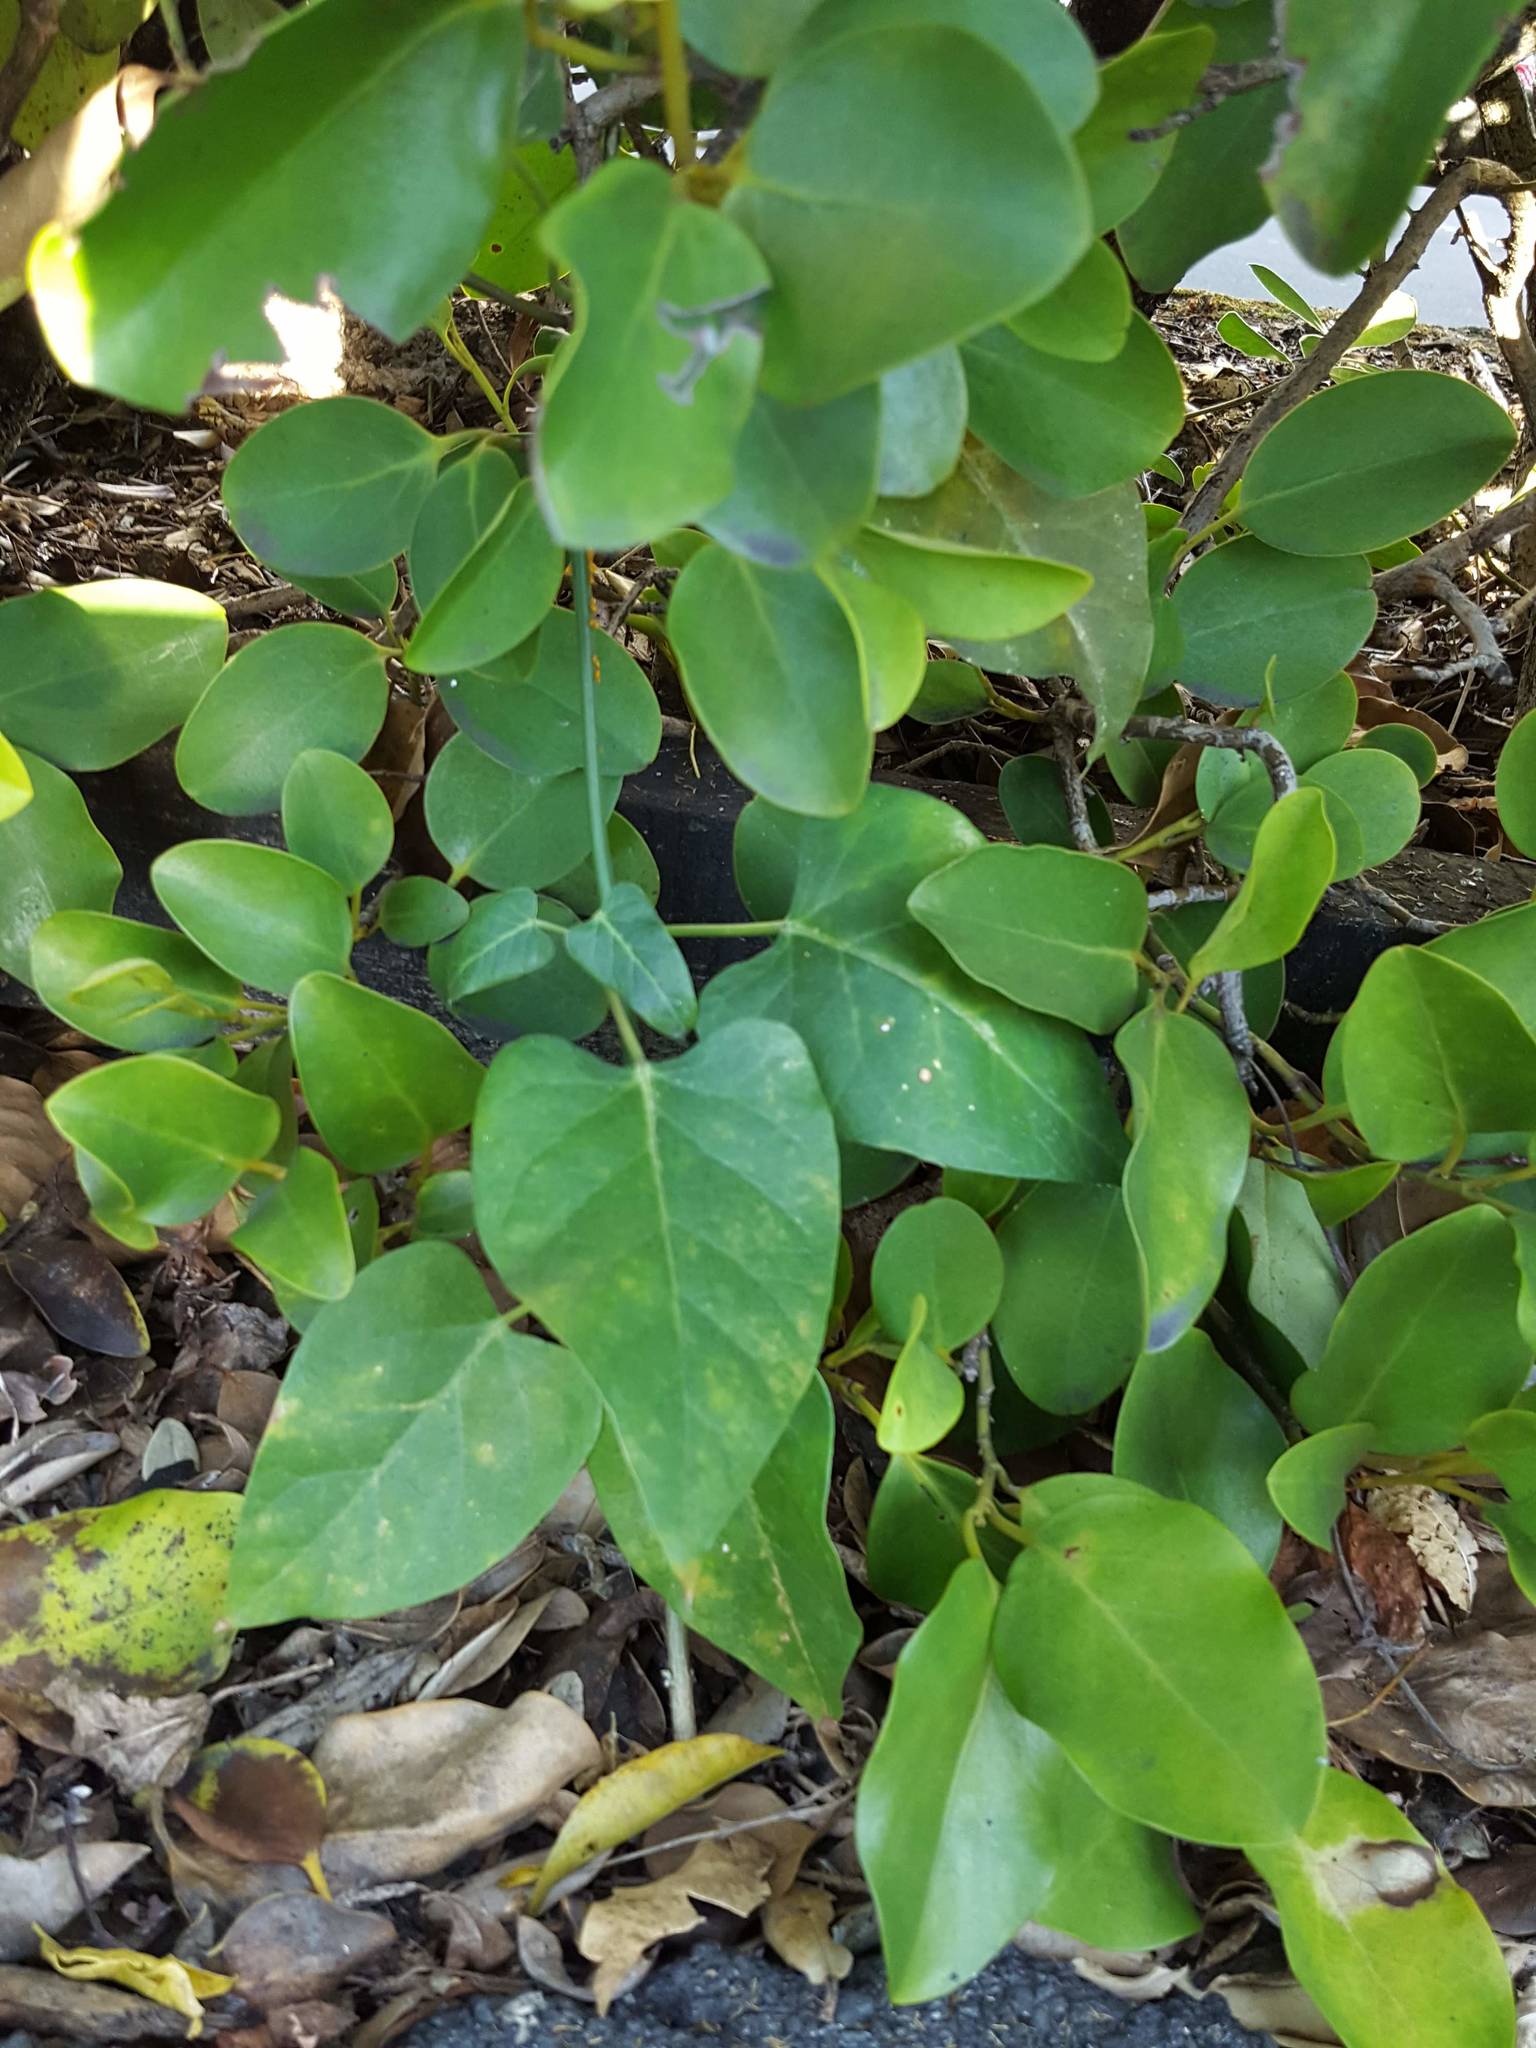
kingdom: Plantae
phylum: Tracheophyta
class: Magnoliopsida
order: Gentianales
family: Apocynaceae
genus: Araujia
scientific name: Araujia sericifera
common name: White bladderflower
